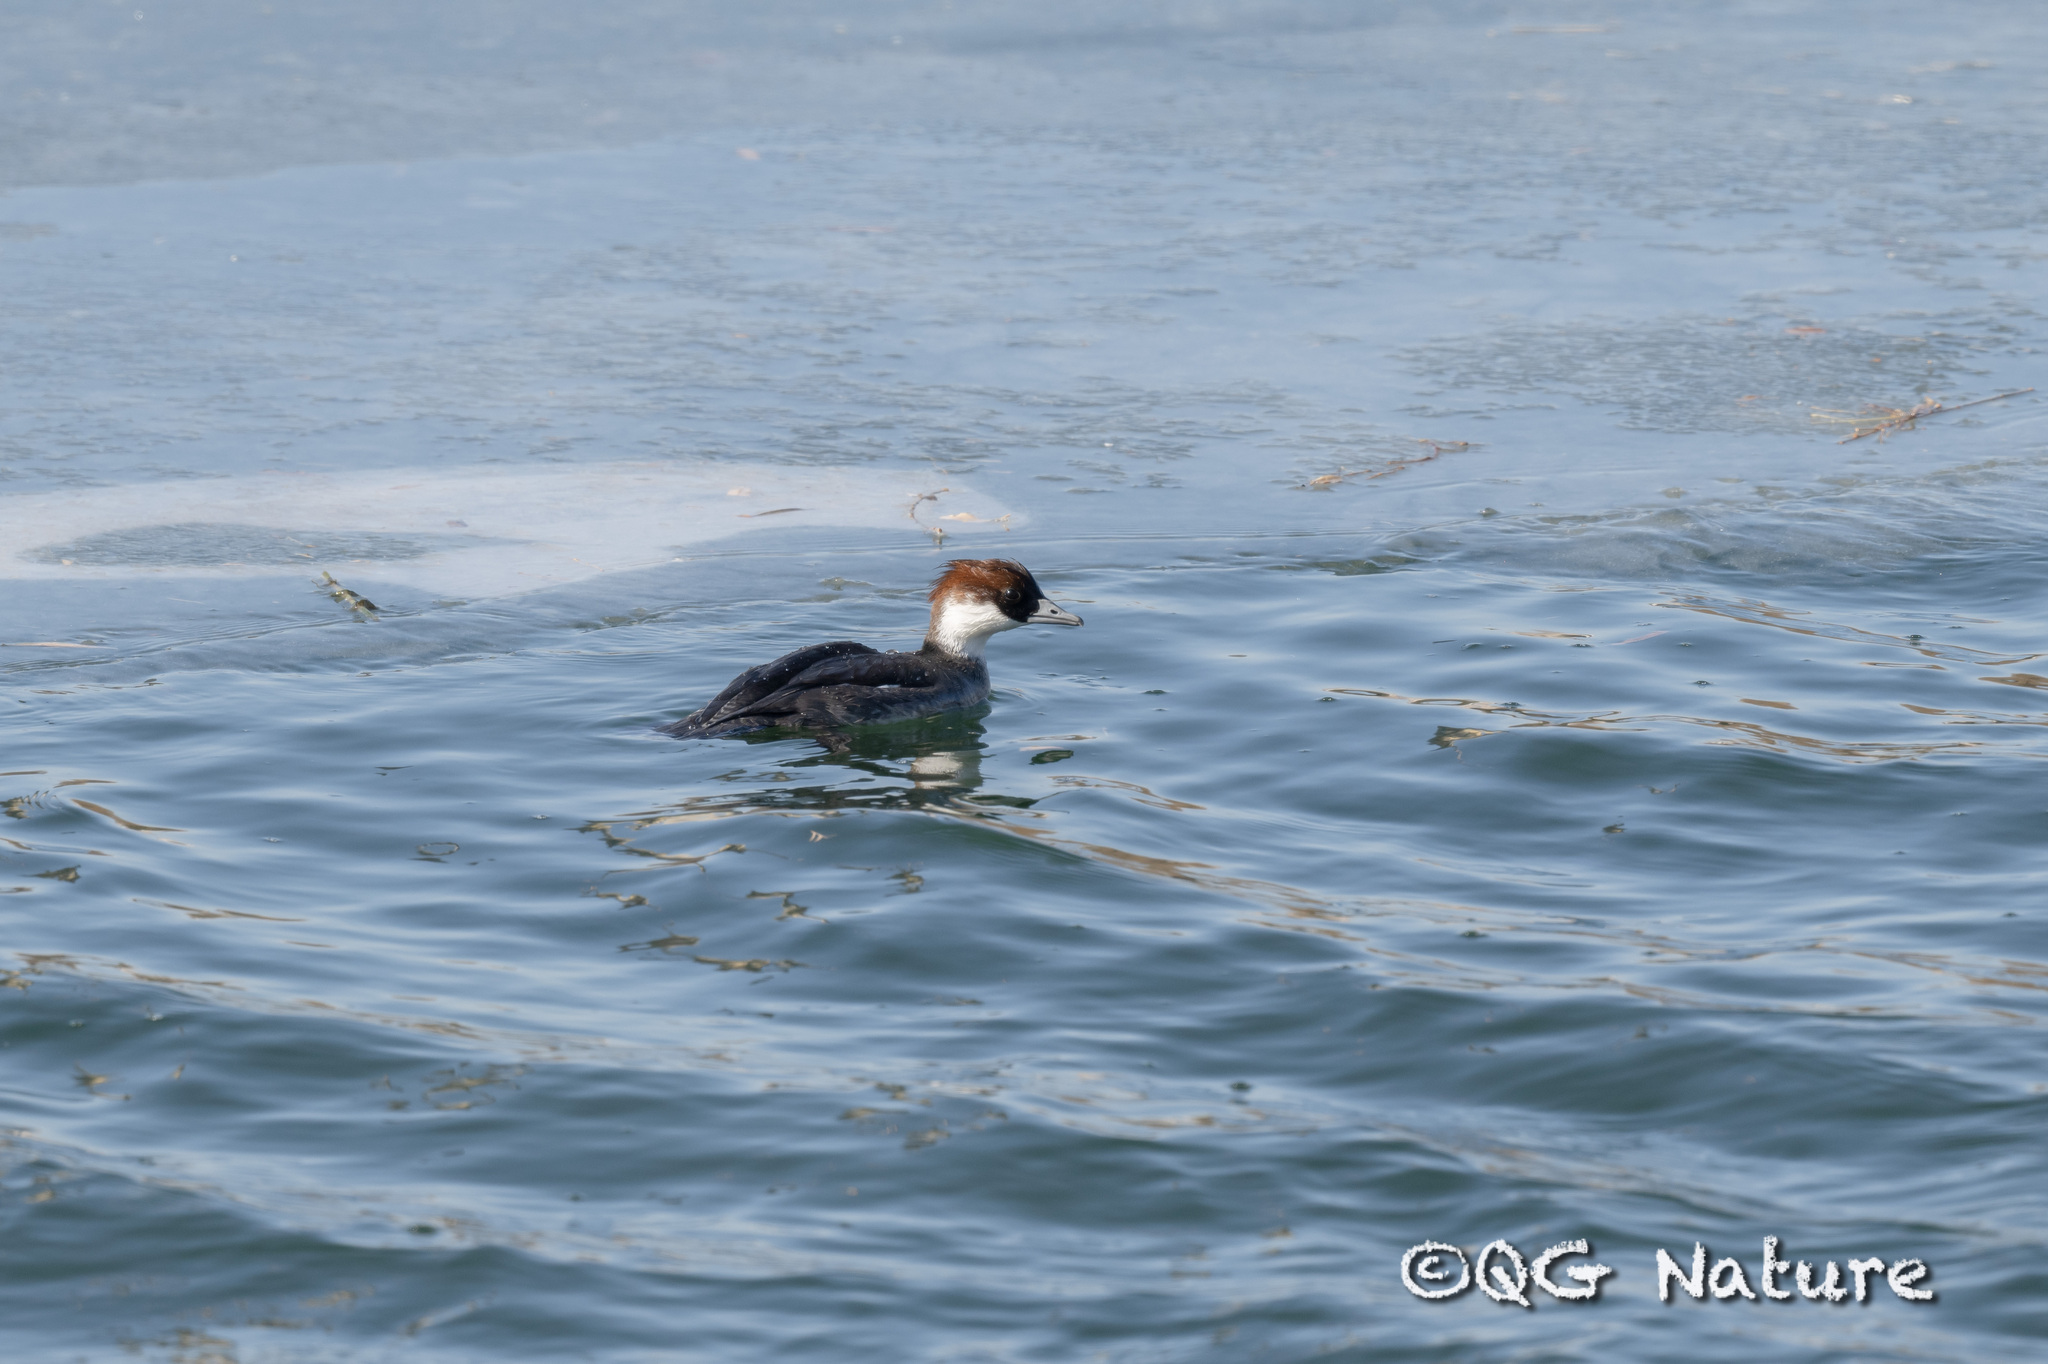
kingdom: Animalia
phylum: Chordata
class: Aves
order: Anseriformes
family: Anatidae
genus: Mergellus
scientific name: Mergellus albellus
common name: Smew
